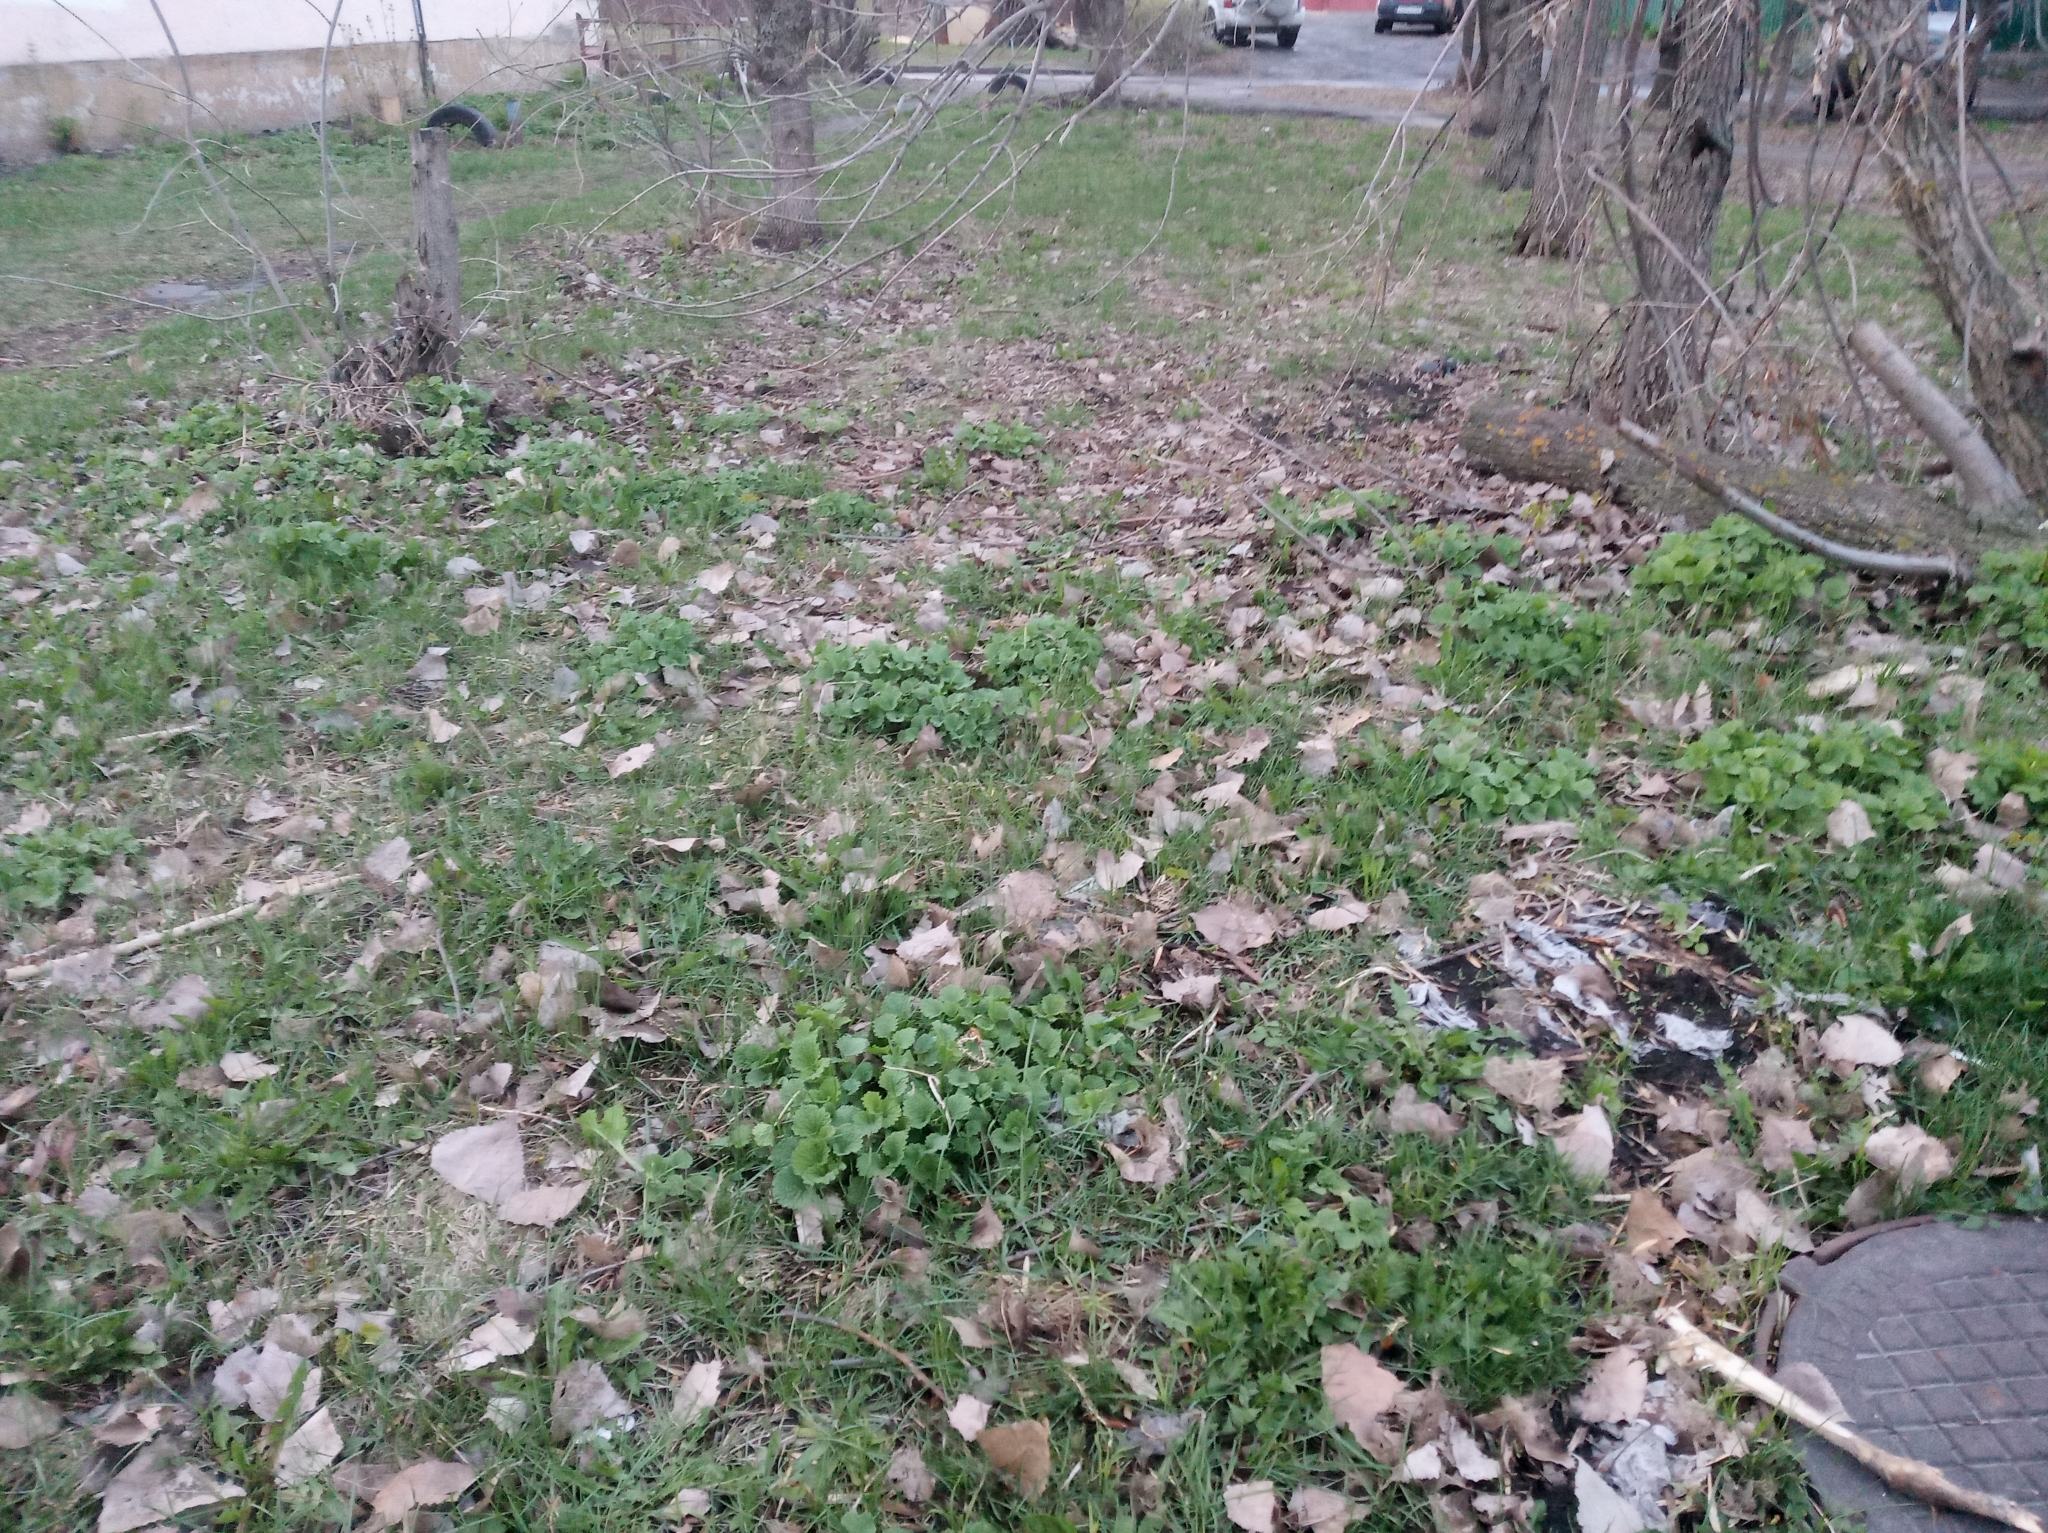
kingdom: Plantae
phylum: Tracheophyta
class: Magnoliopsida
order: Brassicales
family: Brassicaceae
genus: Alliaria
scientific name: Alliaria petiolata
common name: Garlic mustard
